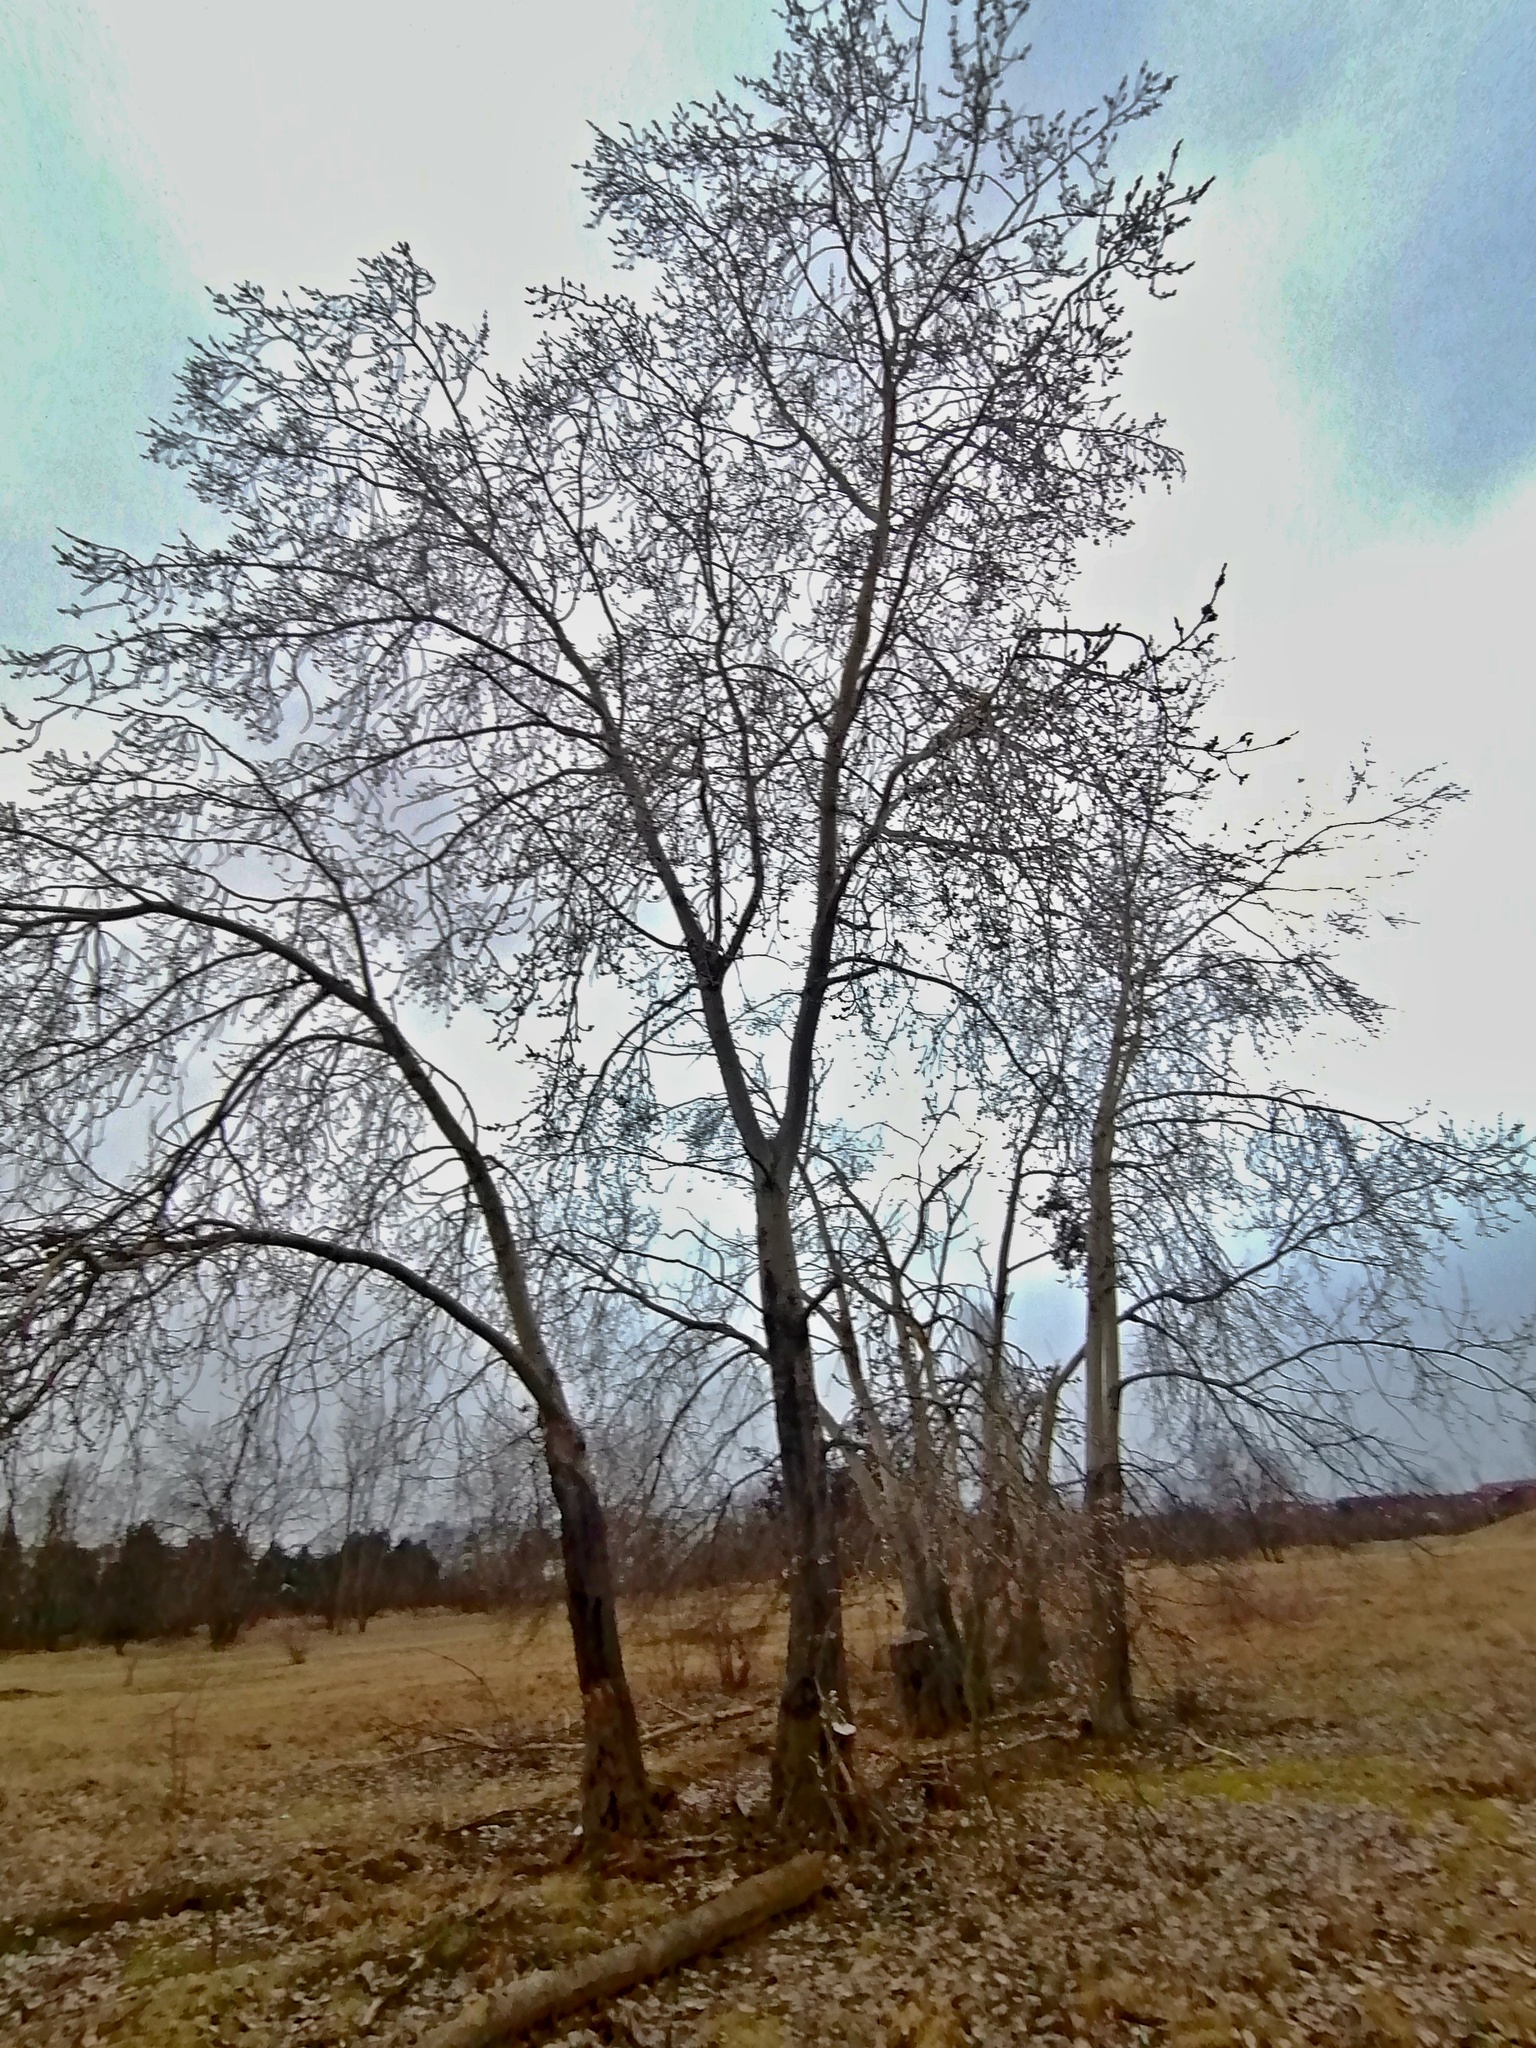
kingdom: Plantae
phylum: Tracheophyta
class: Magnoliopsida
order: Malpighiales
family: Salicaceae
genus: Populus
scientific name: Populus tremula
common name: European aspen
